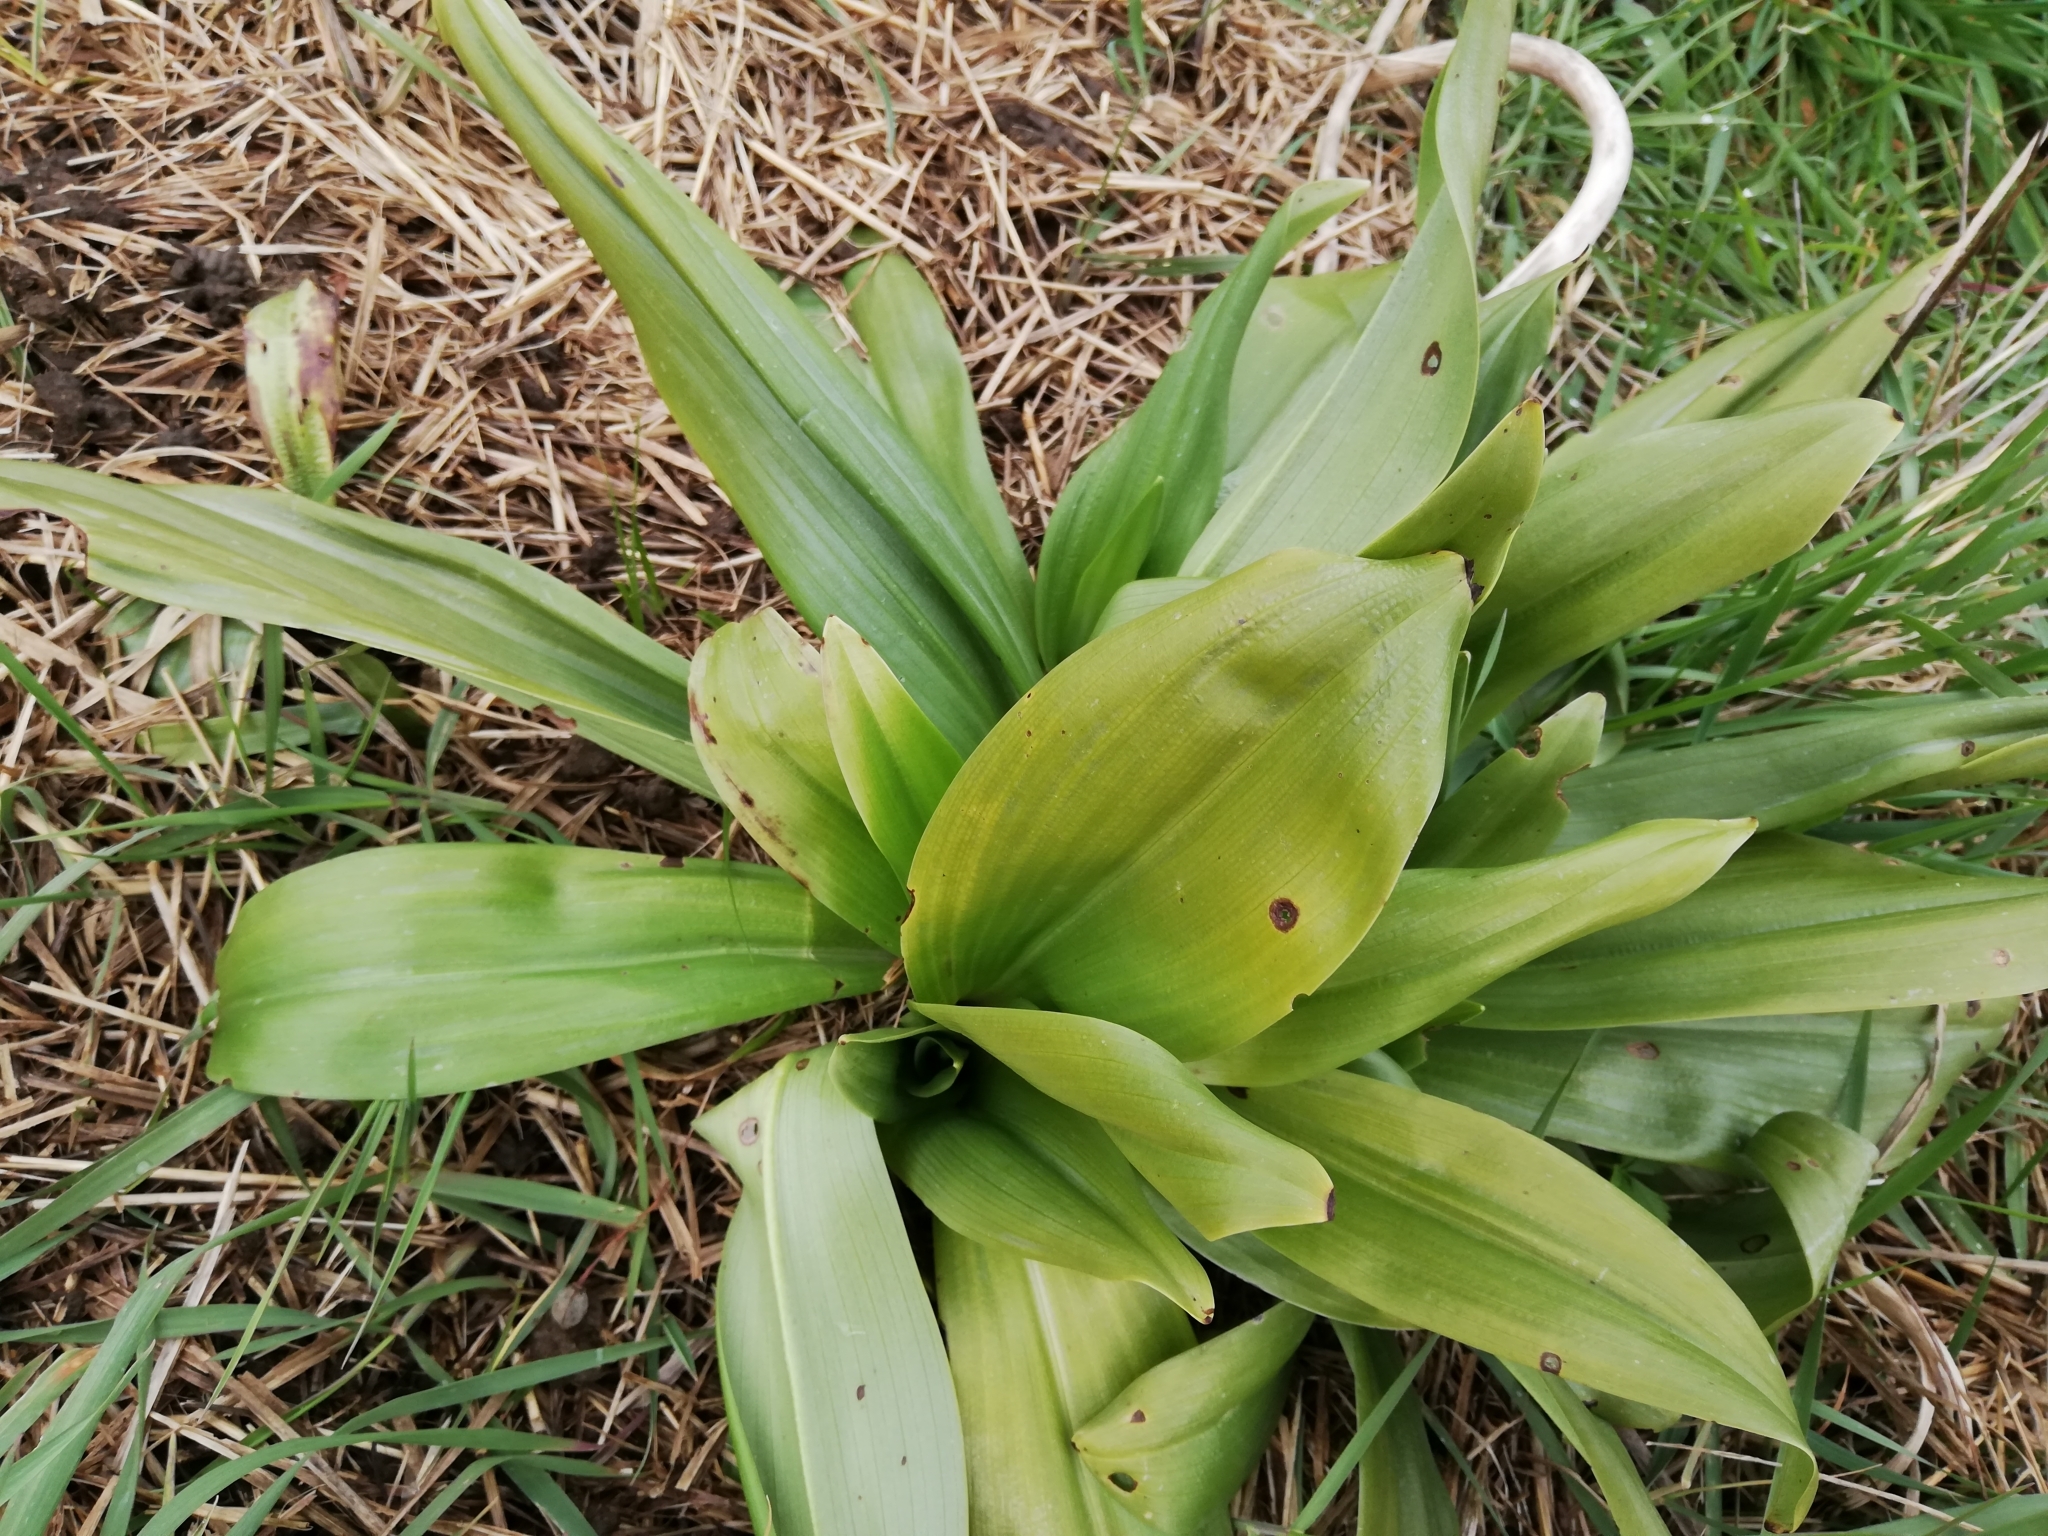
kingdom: Plantae
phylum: Tracheophyta
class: Liliopsida
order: Asparagales
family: Orchidaceae
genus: Himantoglossum
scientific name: Himantoglossum hircinum
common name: Lizard orchid
